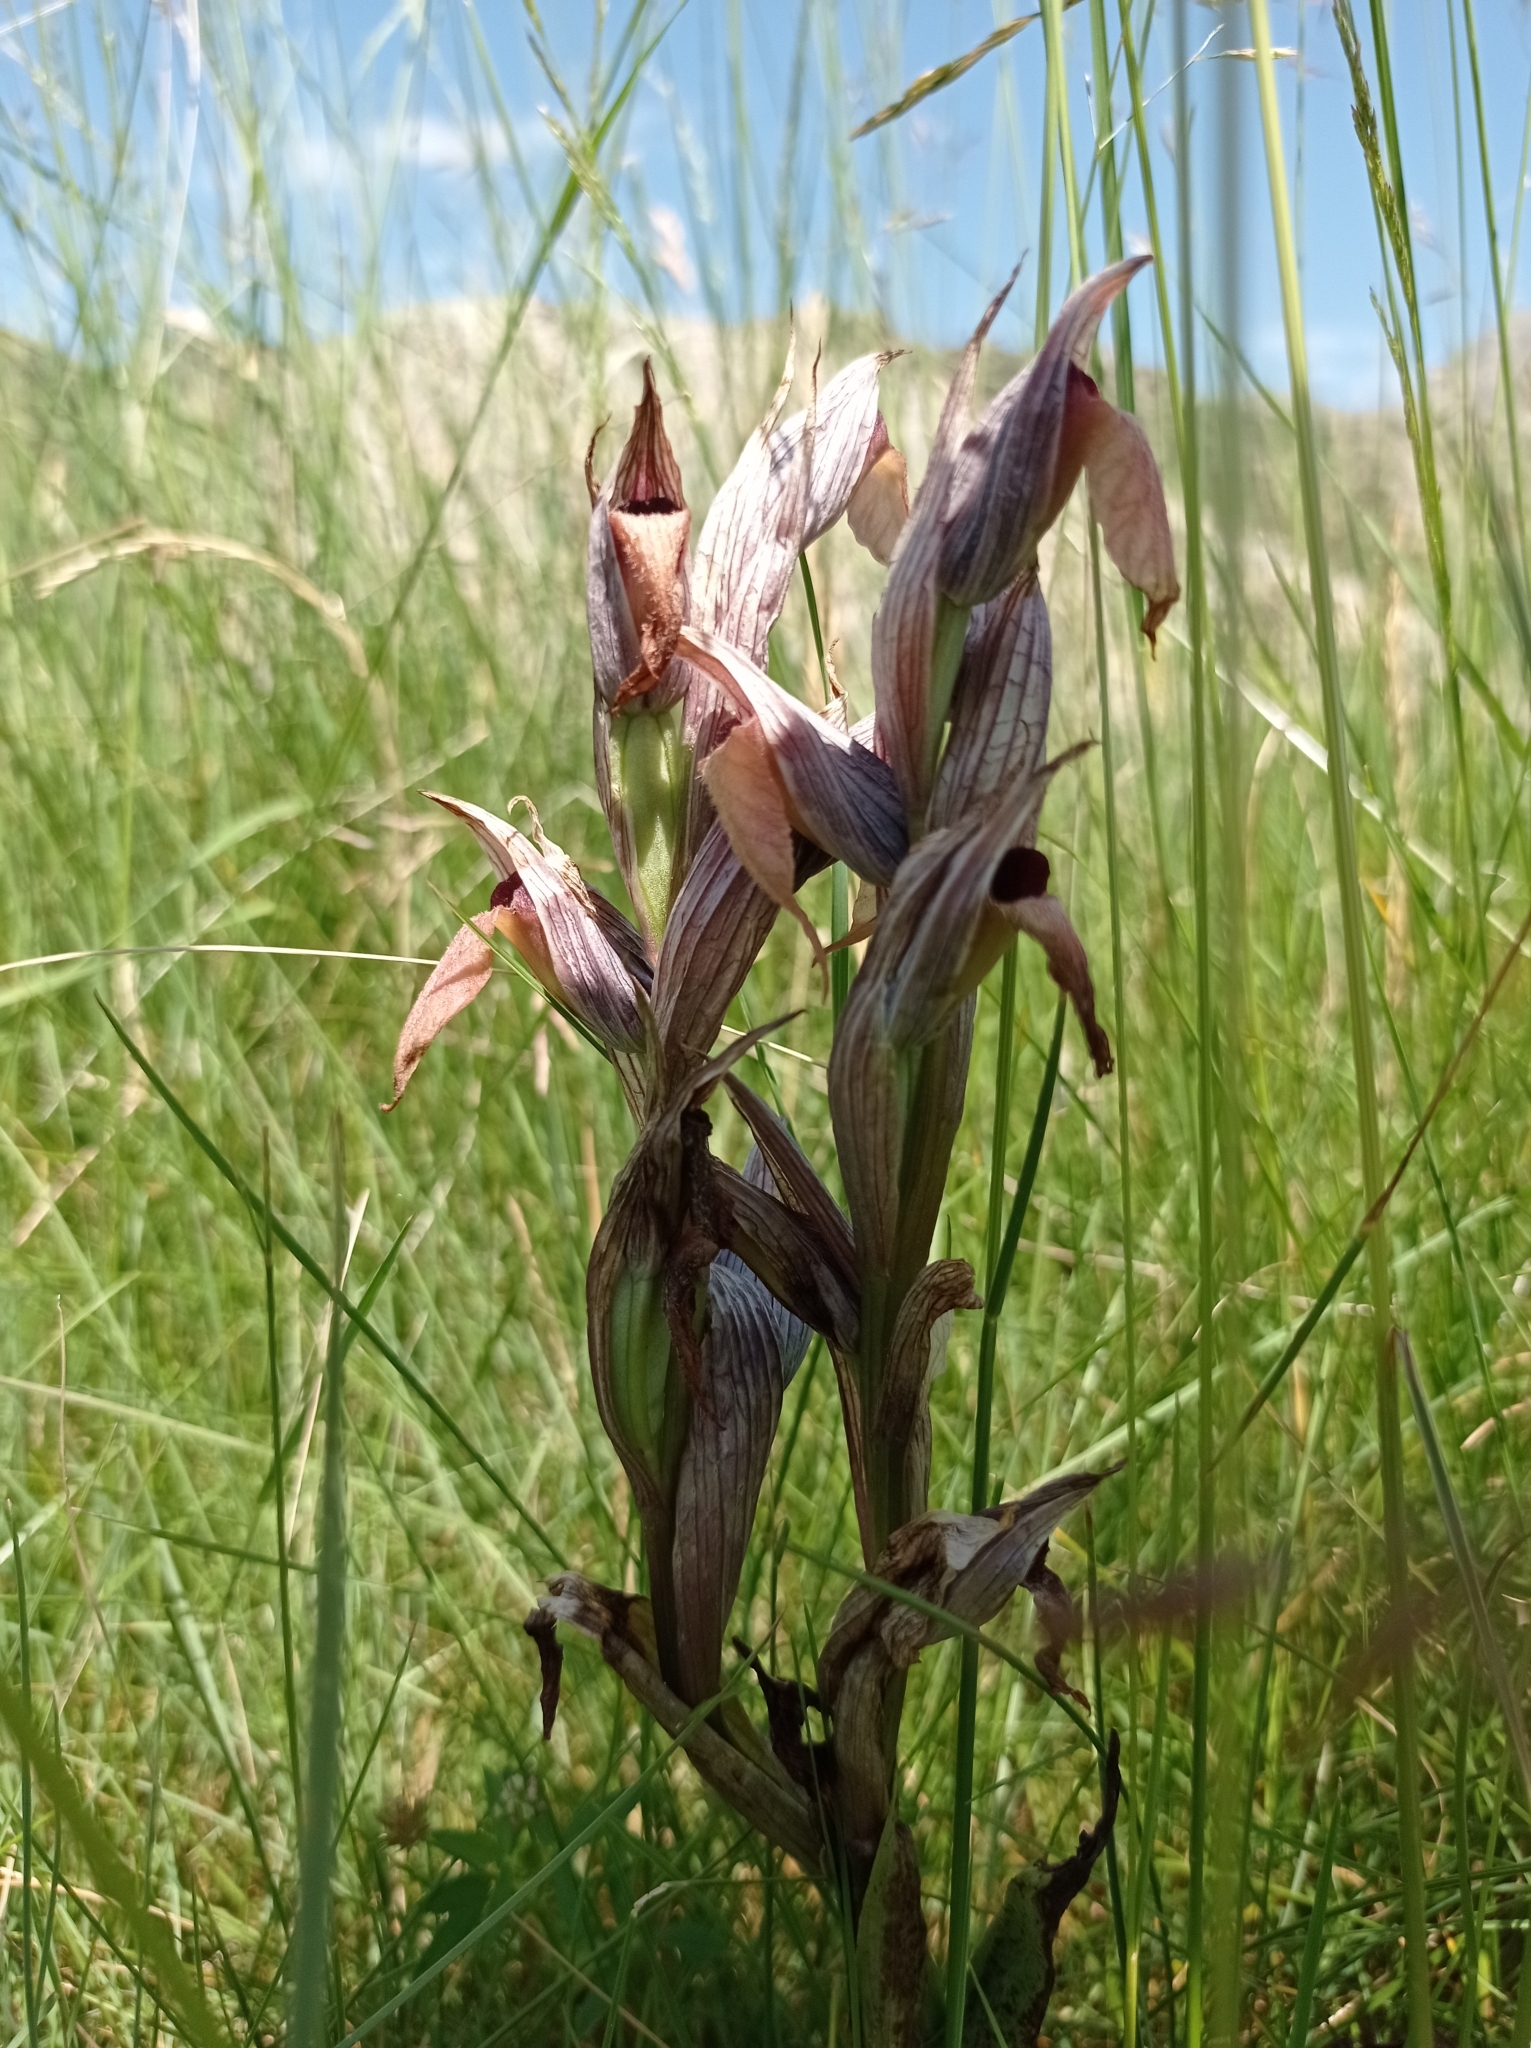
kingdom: Plantae
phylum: Tracheophyta
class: Liliopsida
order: Asparagales
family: Orchidaceae
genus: Serapias
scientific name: Serapias lingua
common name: Tongue-orchid
